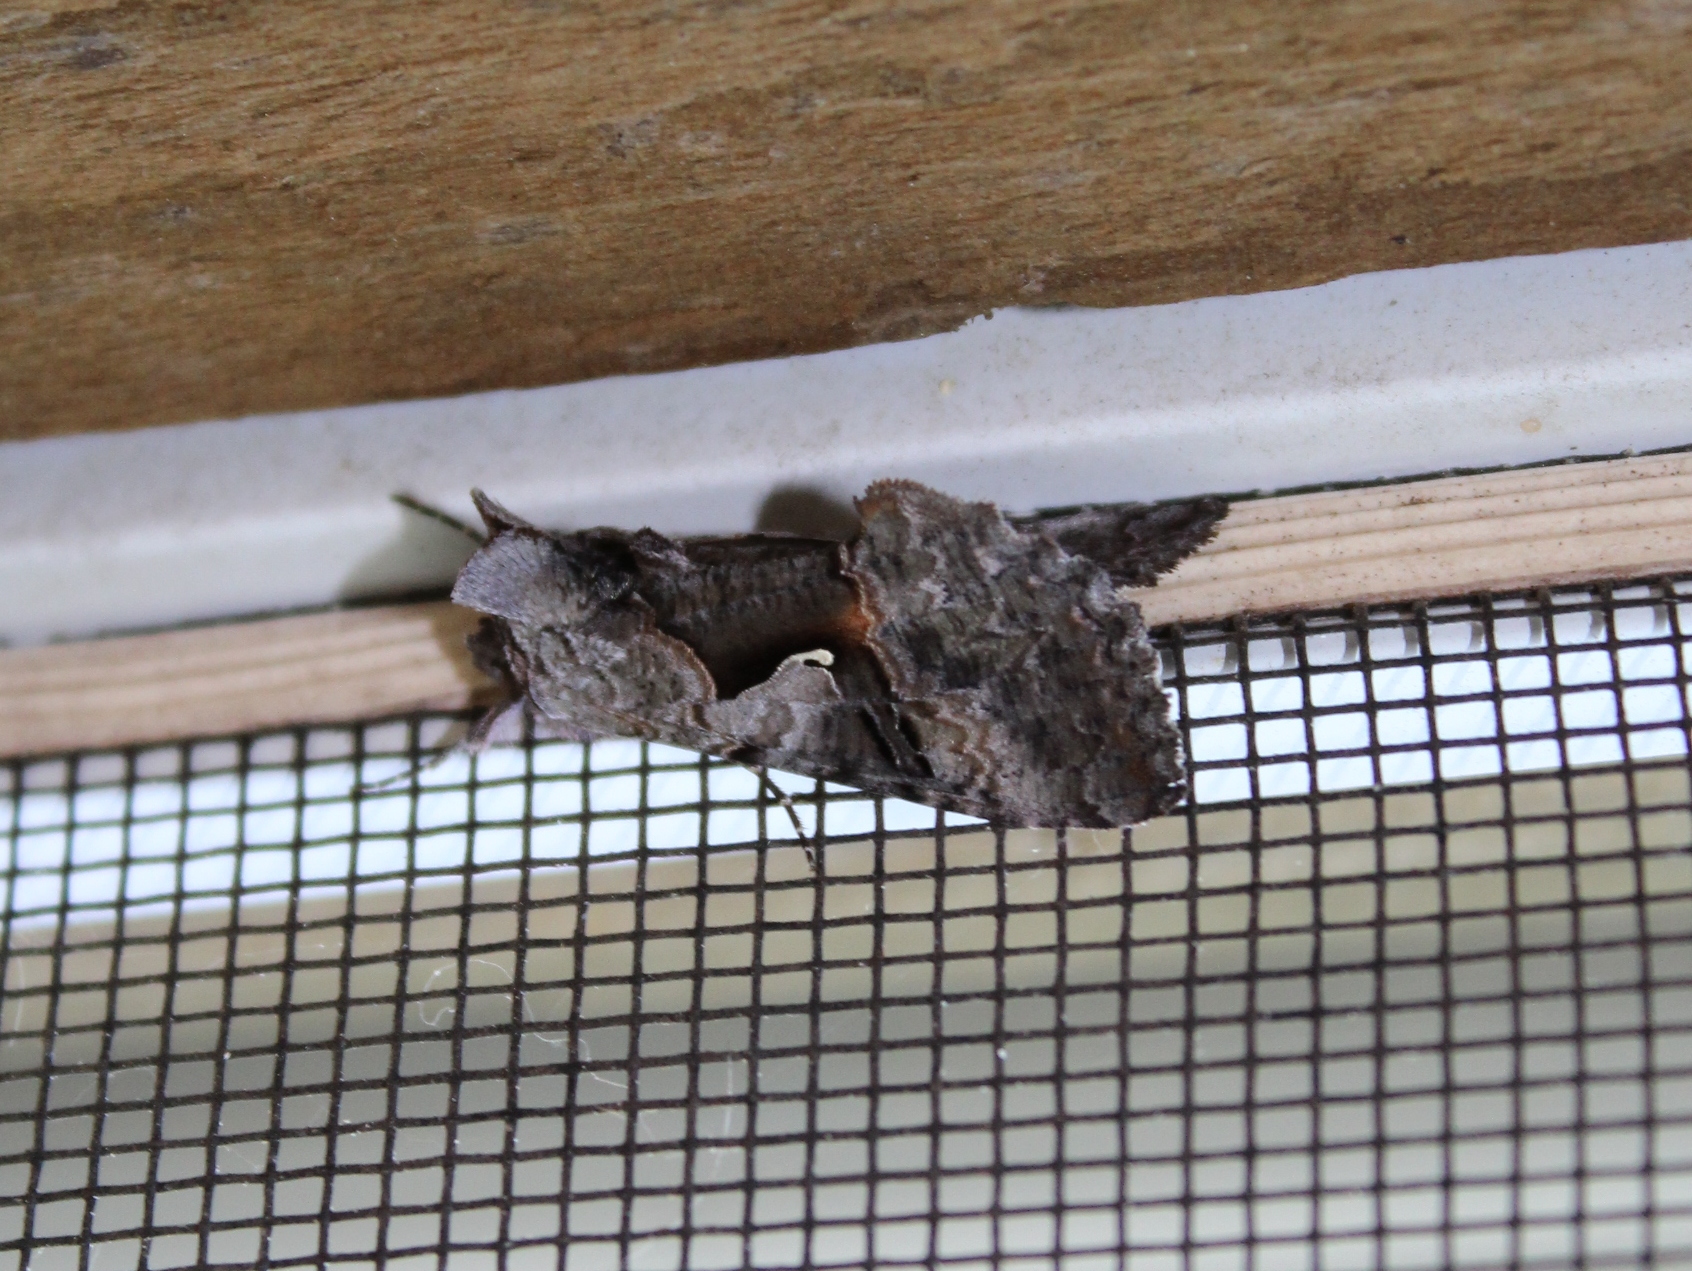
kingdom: Animalia
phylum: Arthropoda
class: Insecta
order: Lepidoptera
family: Noctuidae
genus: Syngrapha
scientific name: Syngrapha epigaea
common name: Epigaea looper moth
